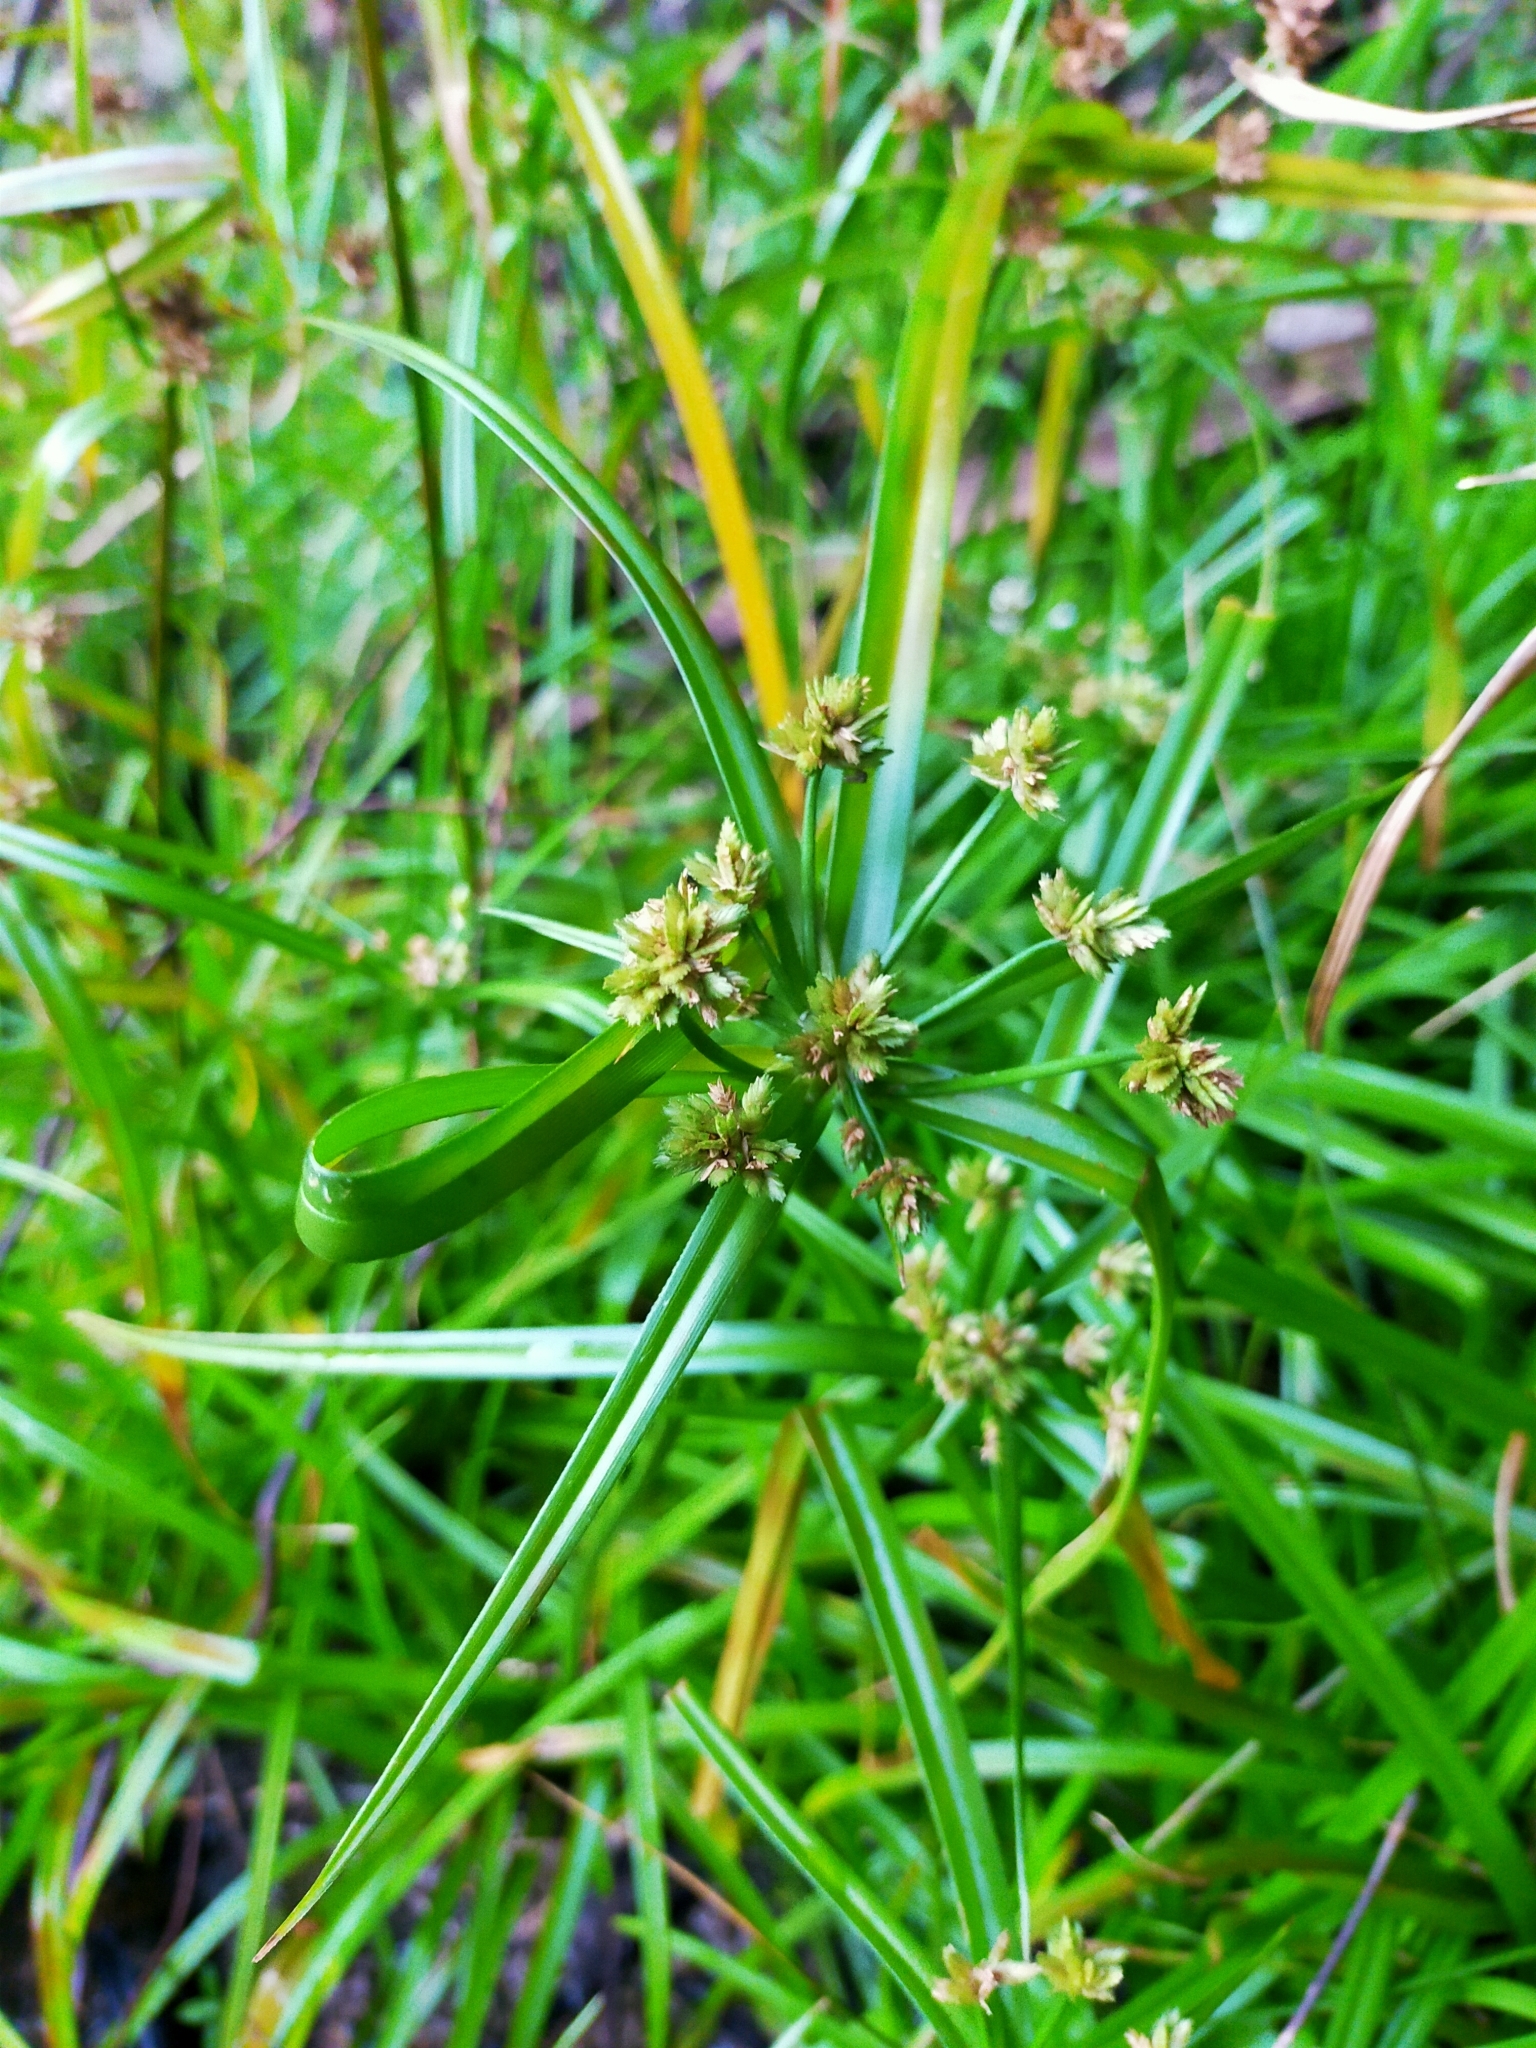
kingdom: Plantae
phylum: Tracheophyta
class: Liliopsida
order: Poales
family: Cyperaceae
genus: Cyperus
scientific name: Cyperus eragrostis
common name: Tall flatsedge
